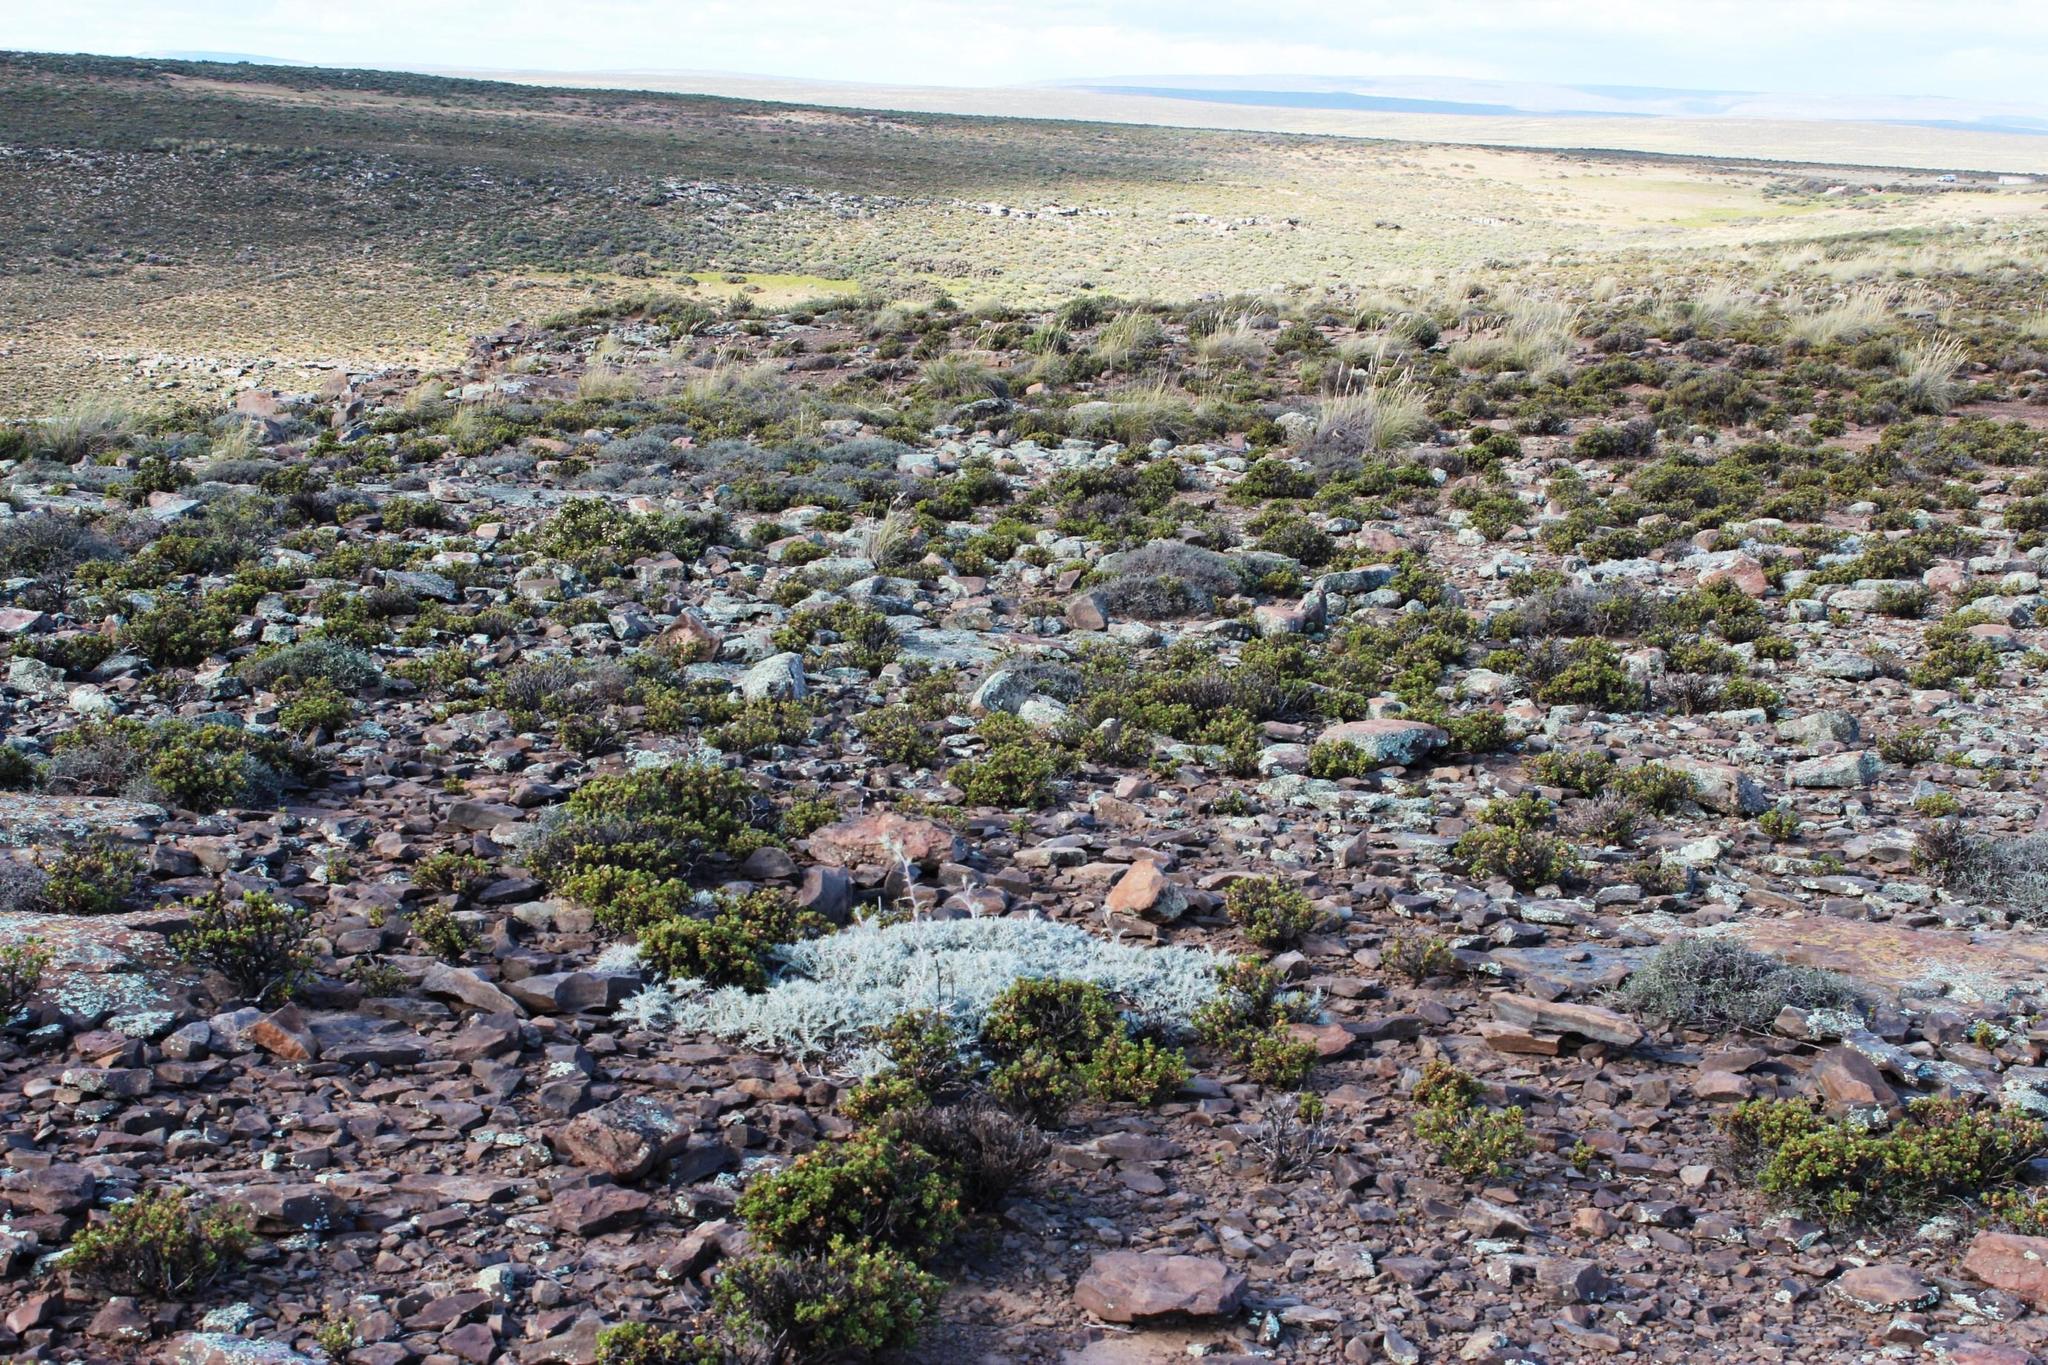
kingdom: Plantae
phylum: Tracheophyta
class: Magnoliopsida
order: Asterales
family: Asteraceae
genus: Berkheya
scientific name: Berkheya carlinifolia
